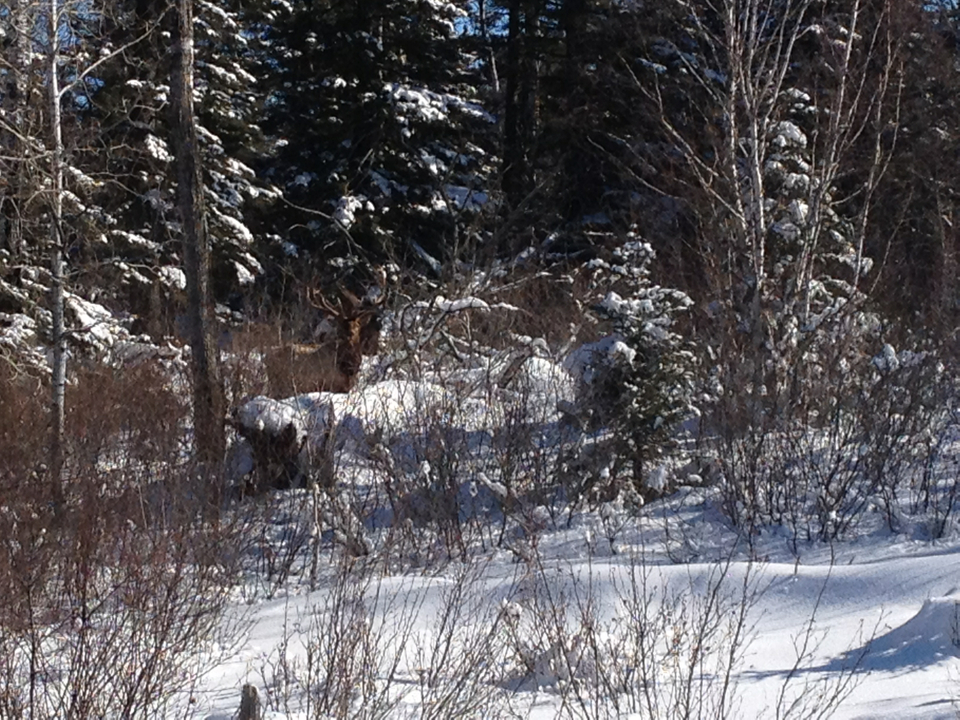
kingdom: Animalia
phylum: Chordata
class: Mammalia
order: Artiodactyla
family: Cervidae
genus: Cervus
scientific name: Cervus elaphus
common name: Red deer
